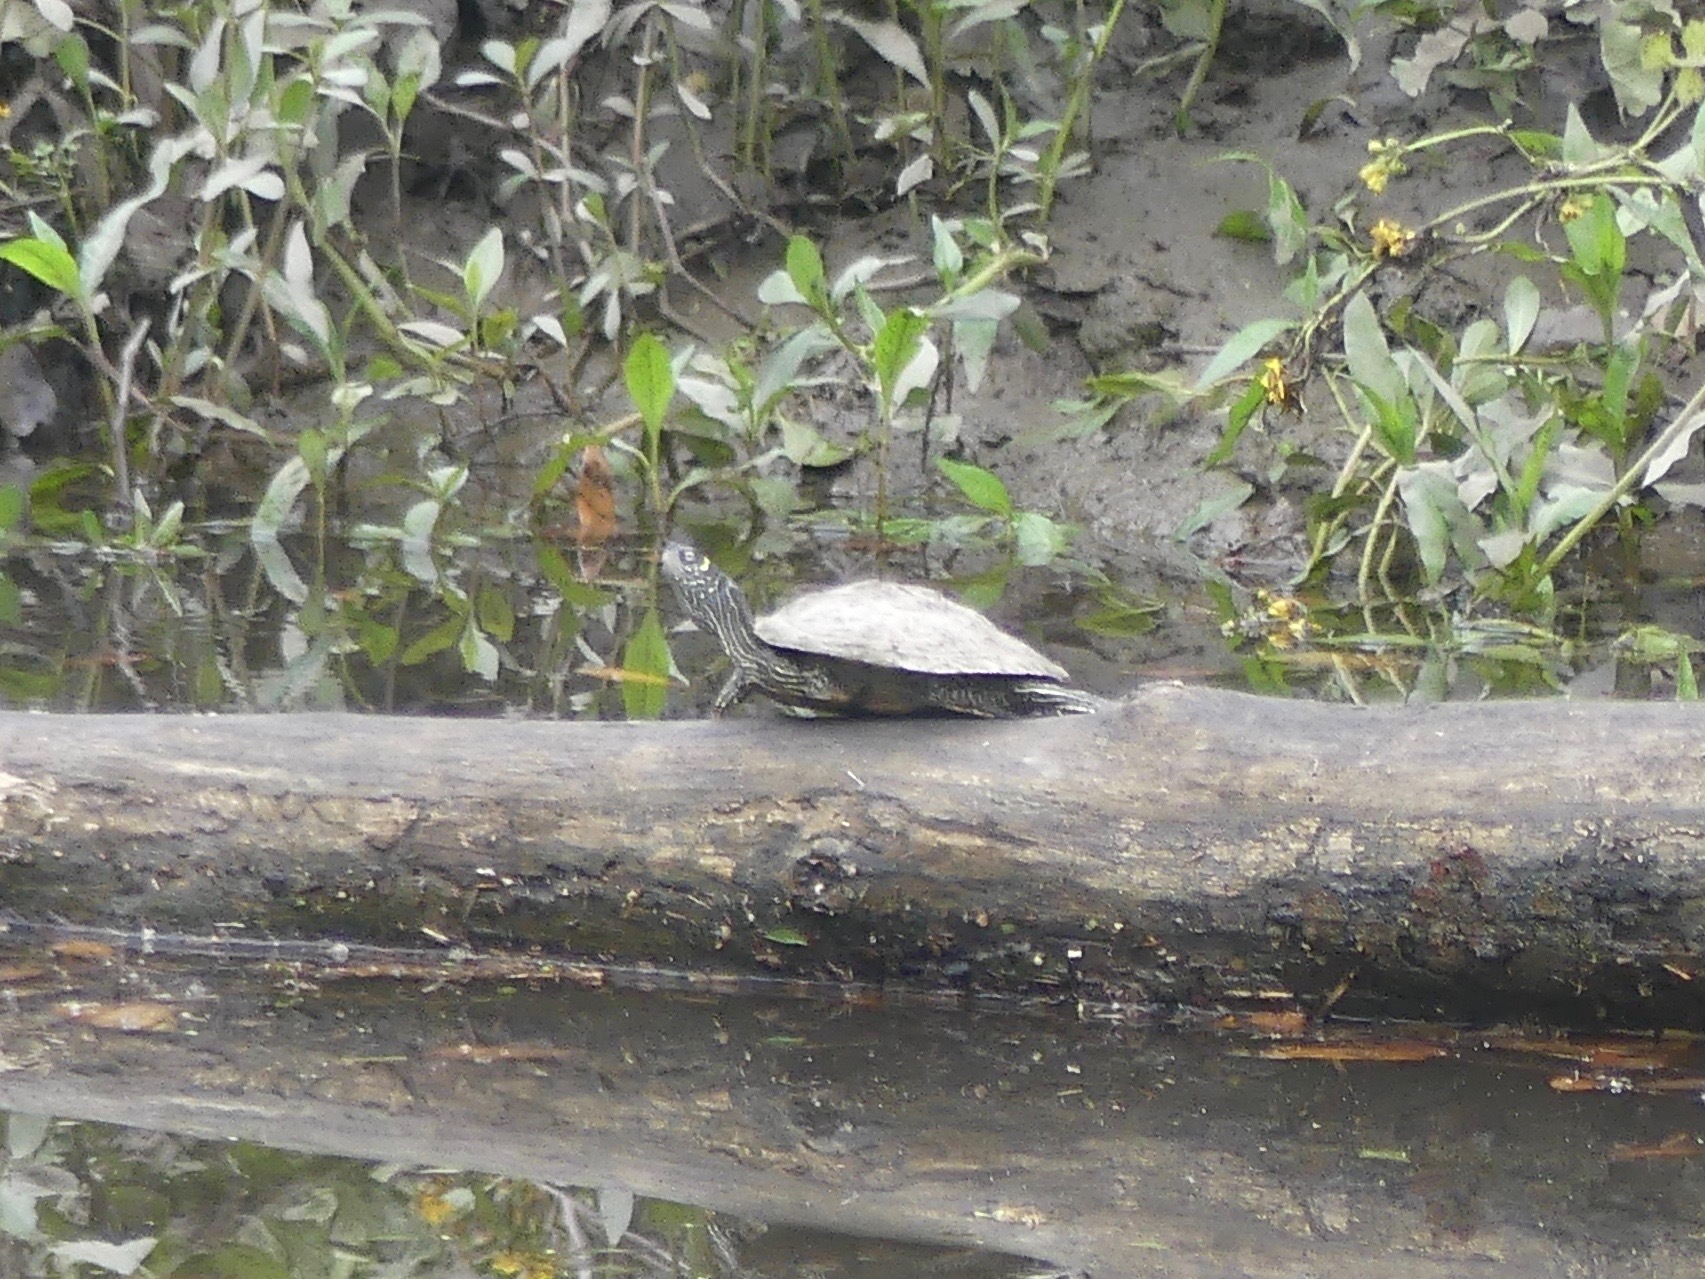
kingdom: Animalia
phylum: Chordata
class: Testudines
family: Emydidae
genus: Graptemys
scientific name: Graptemys pseudogeographica
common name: False map turtle
